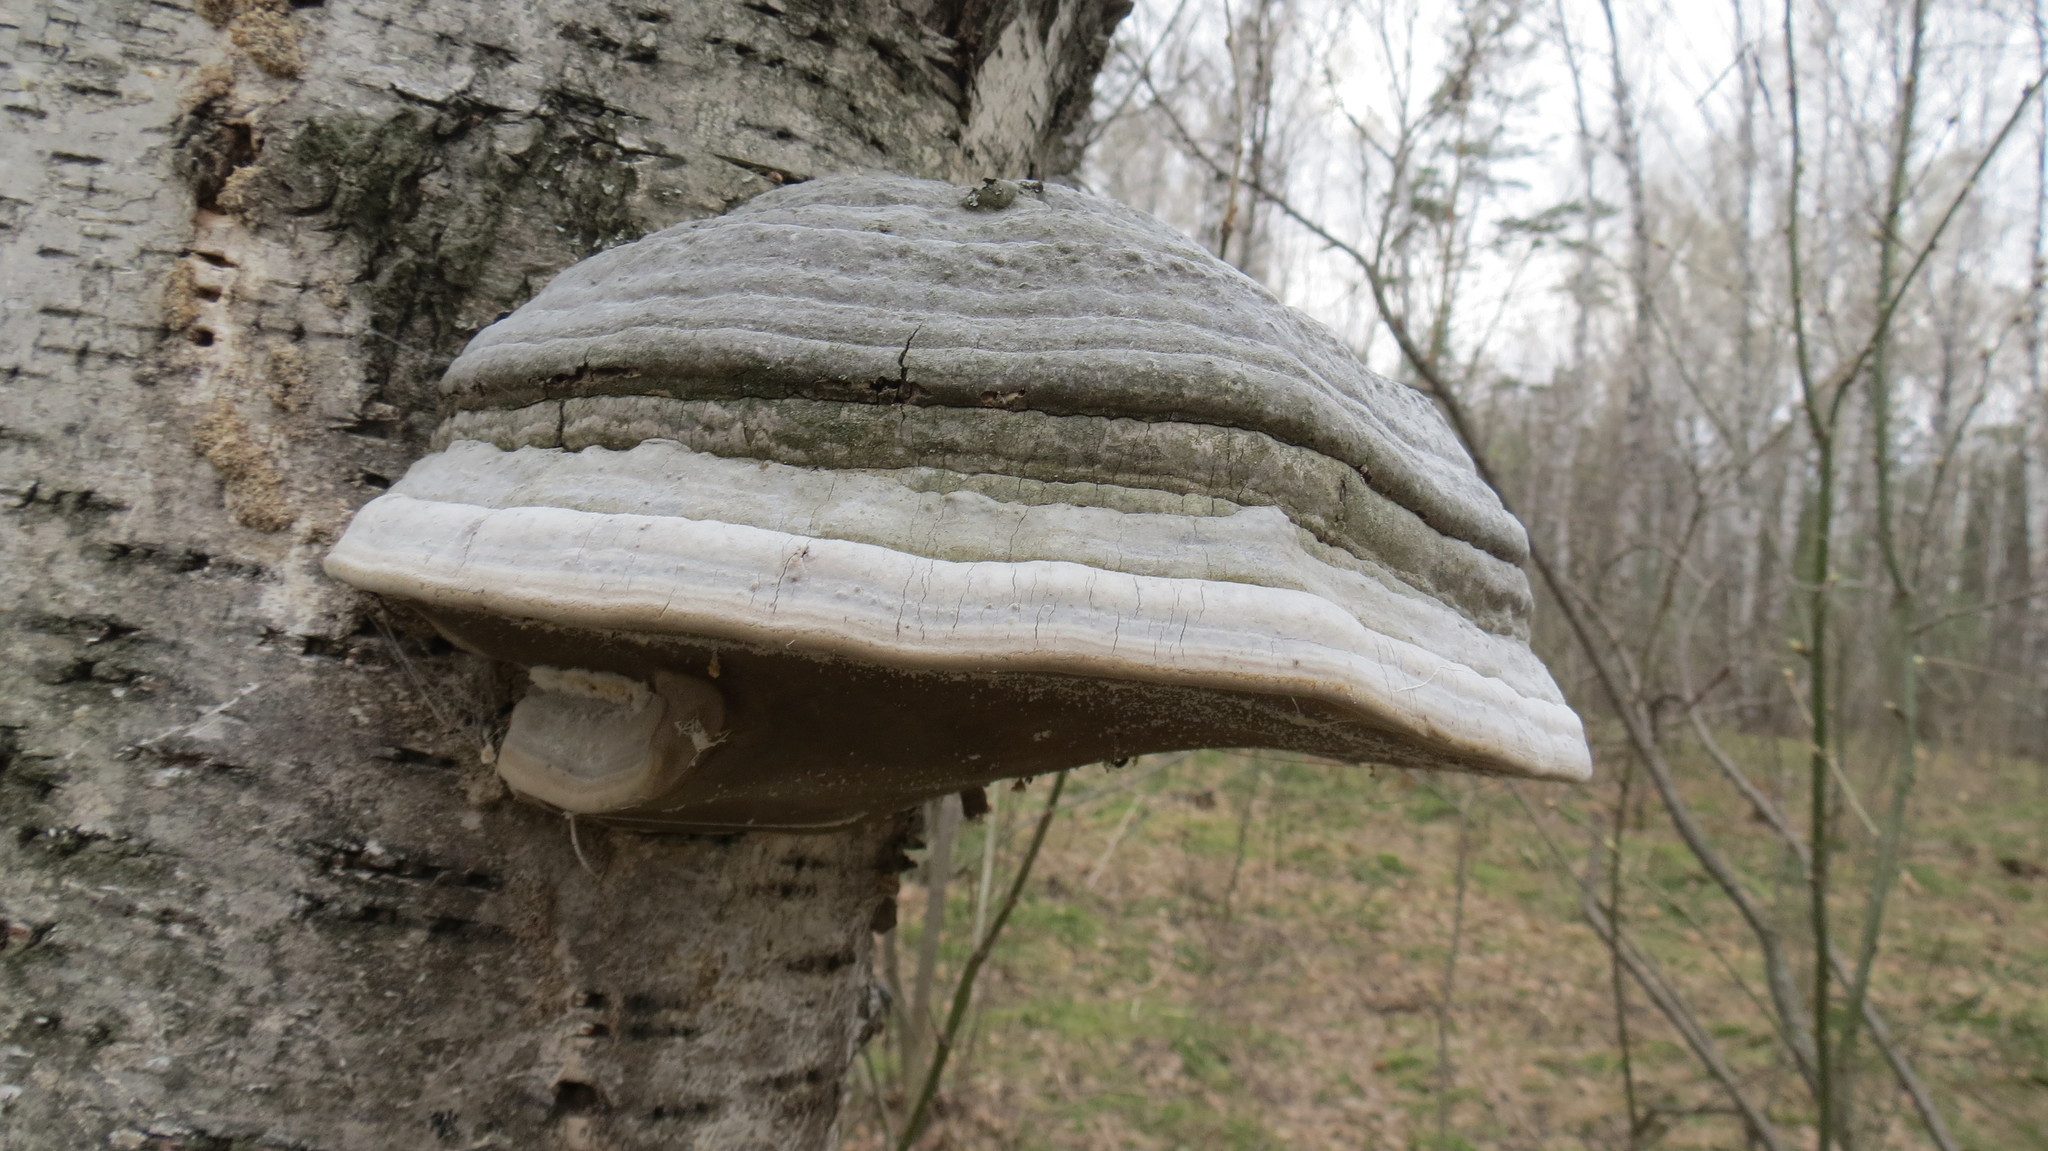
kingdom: Fungi
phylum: Basidiomycota
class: Agaricomycetes
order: Polyporales
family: Polyporaceae
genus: Fomes
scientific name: Fomes fomentarius
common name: Hoof fungus
